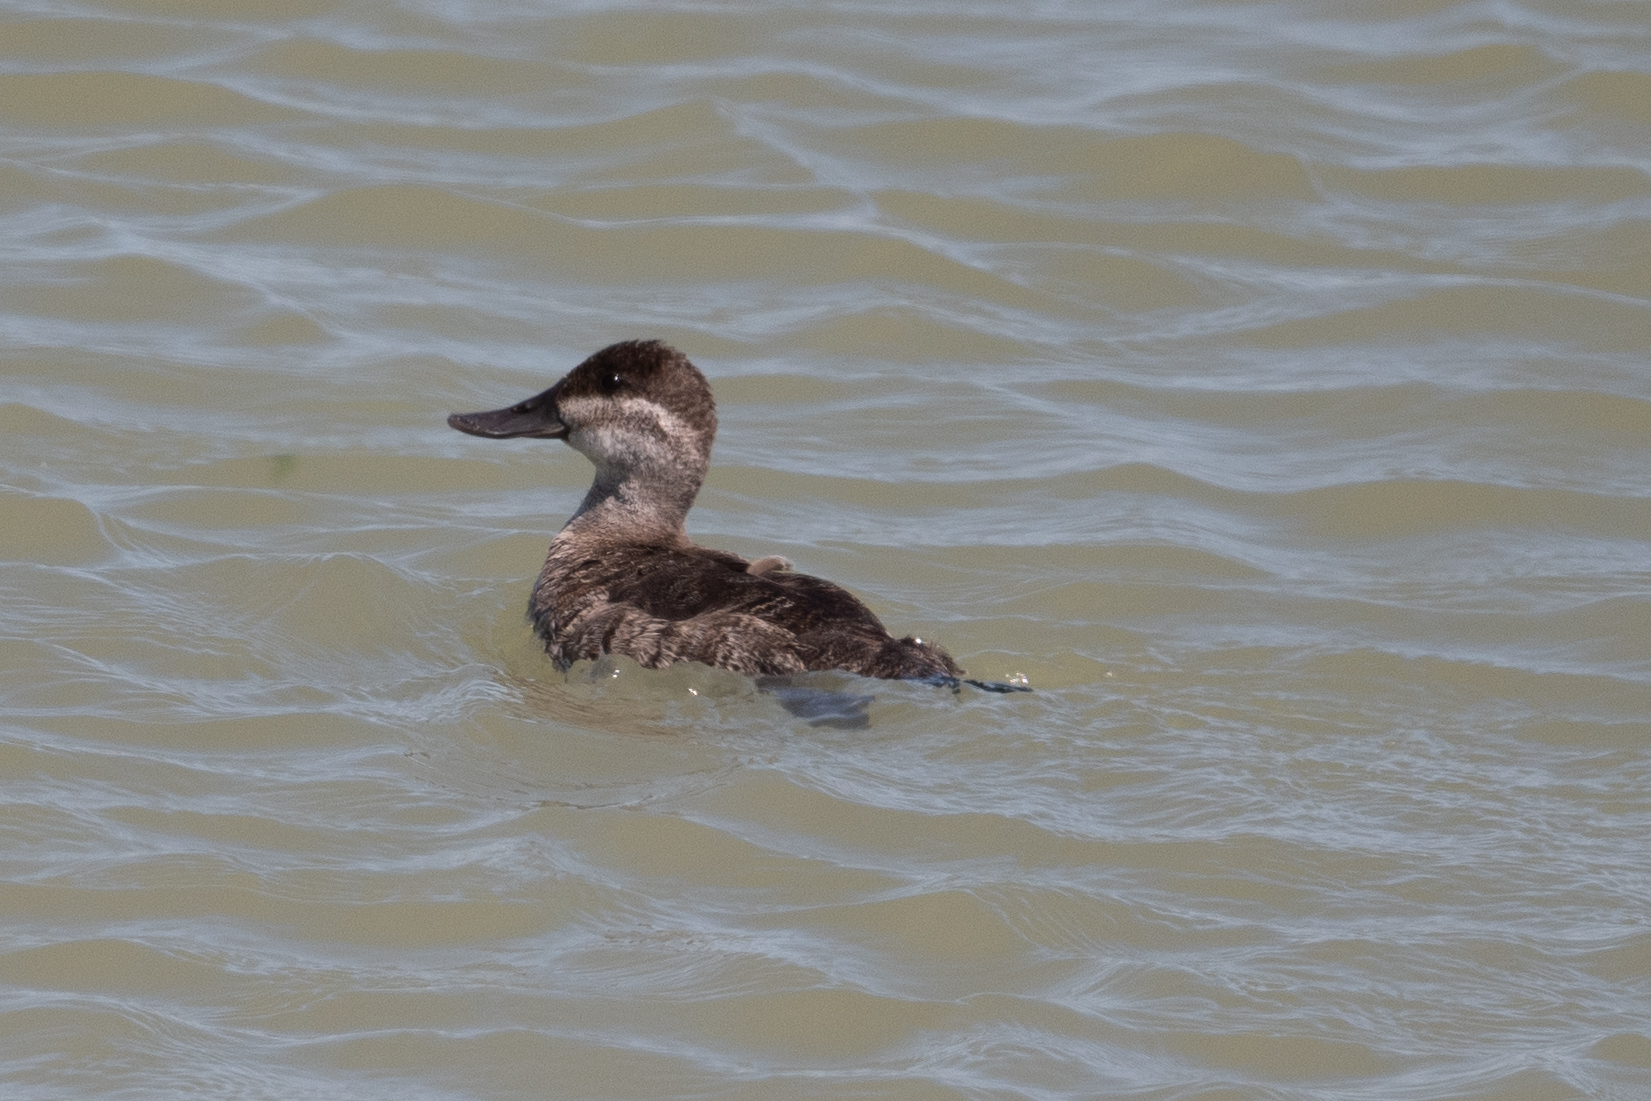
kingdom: Animalia
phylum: Chordata
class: Aves
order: Anseriformes
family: Anatidae
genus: Oxyura
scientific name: Oxyura jamaicensis
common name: Ruddy duck
